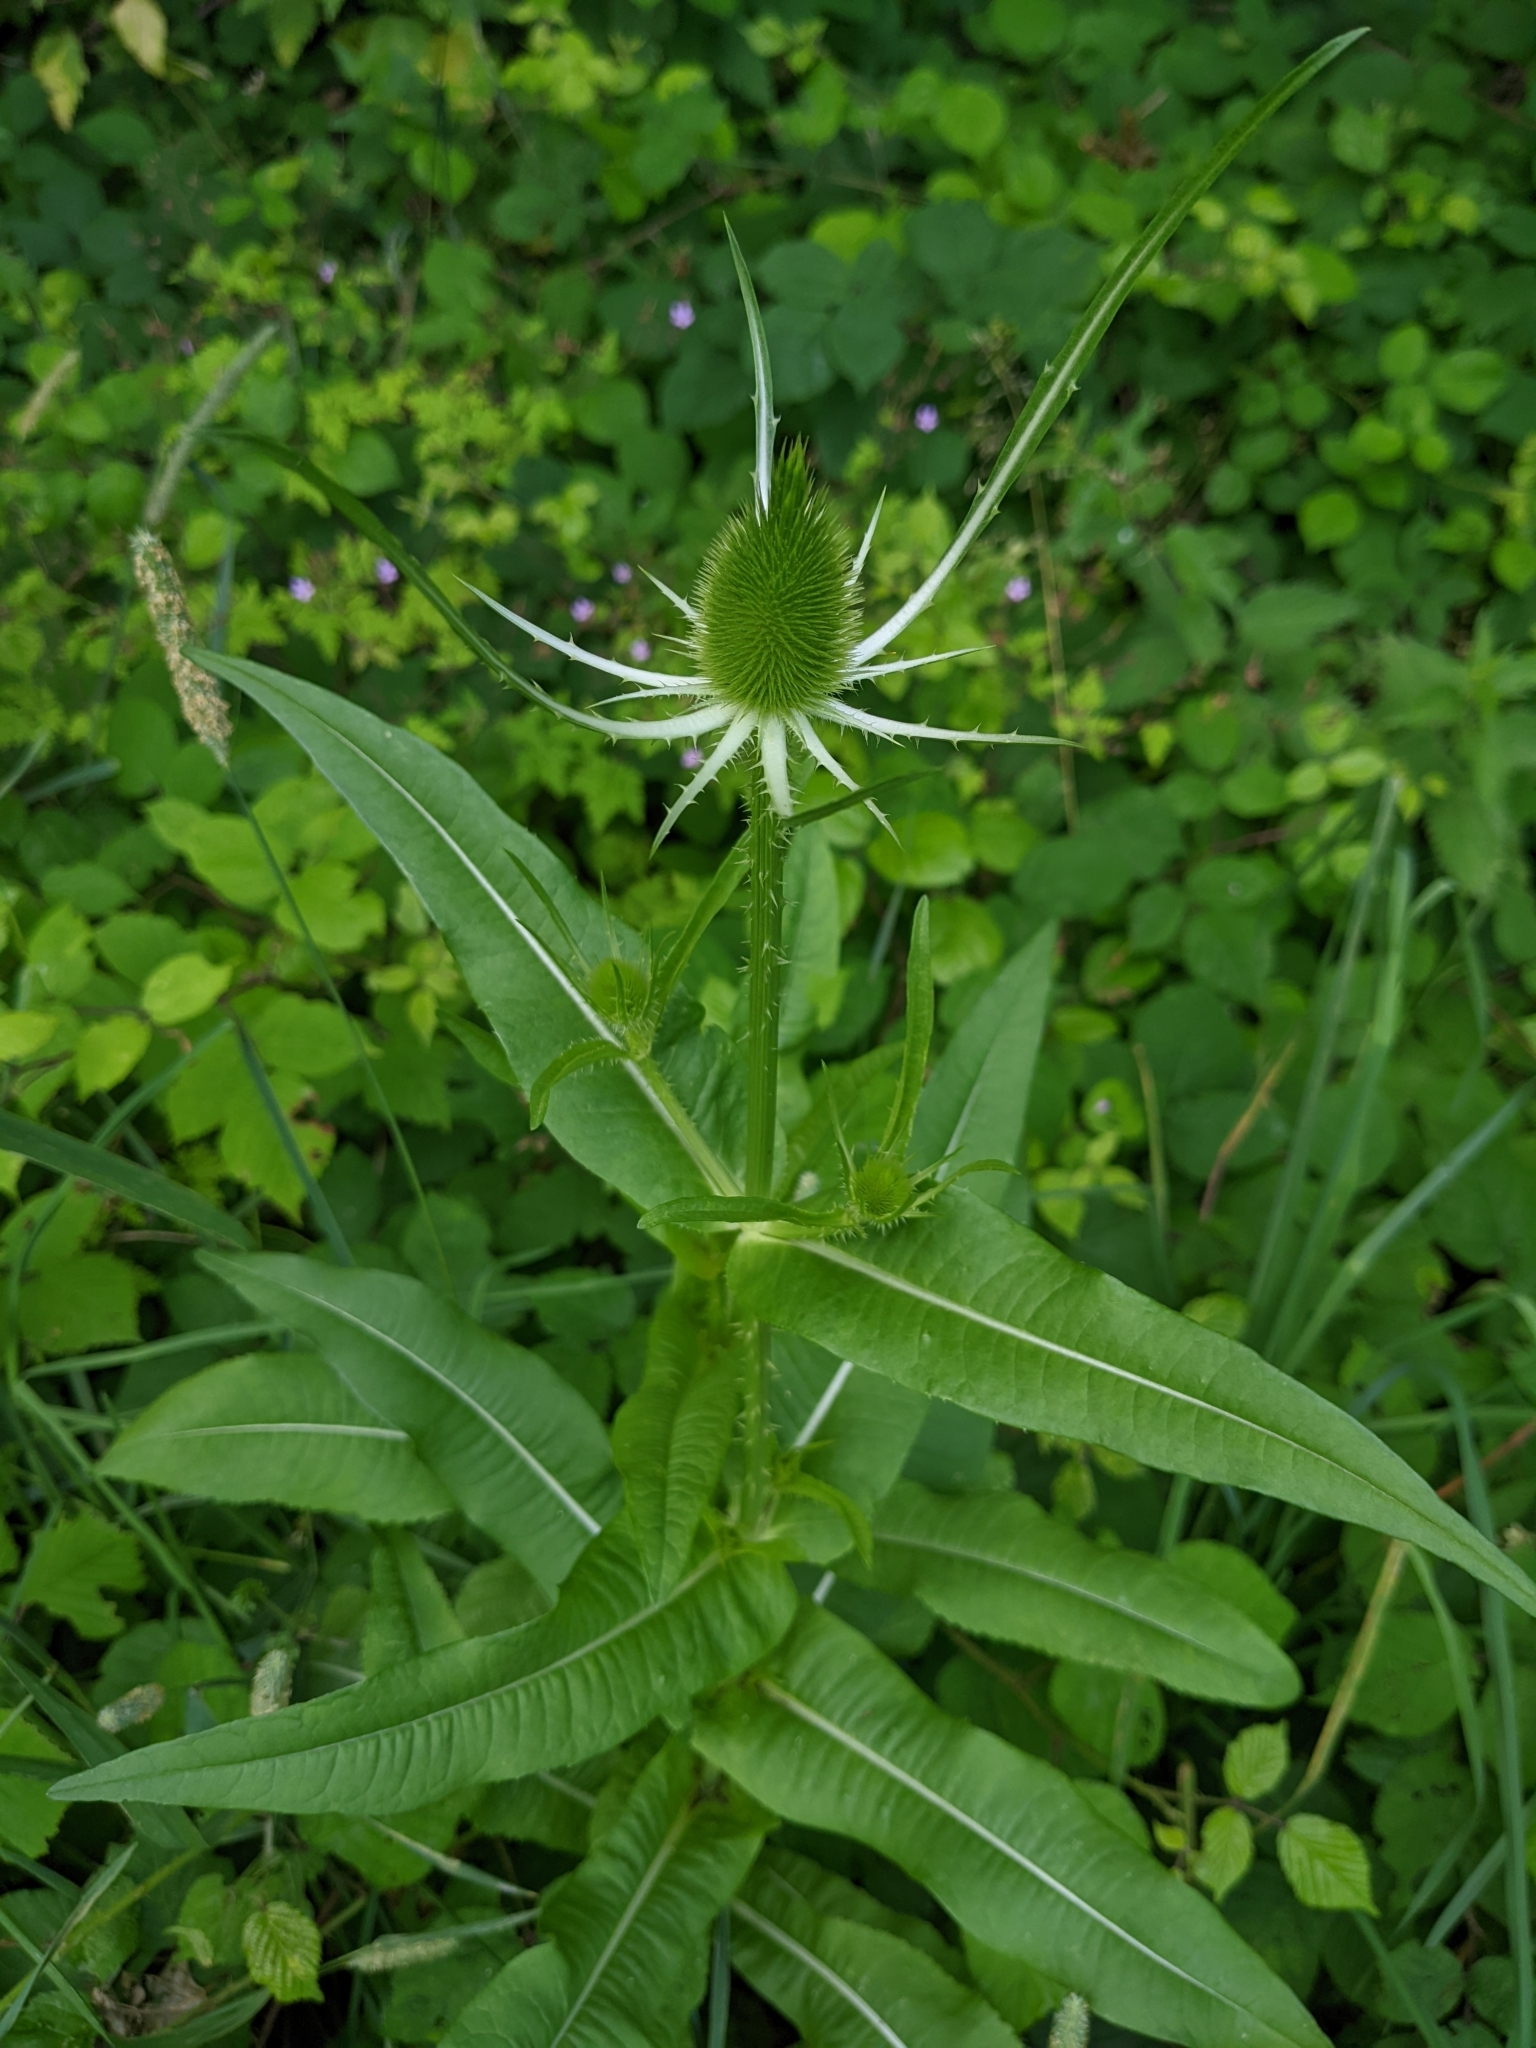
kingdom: Plantae
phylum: Tracheophyta
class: Magnoliopsida
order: Dipsacales
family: Caprifoliaceae
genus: Dipsacus
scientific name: Dipsacus fullonum
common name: Teasel
